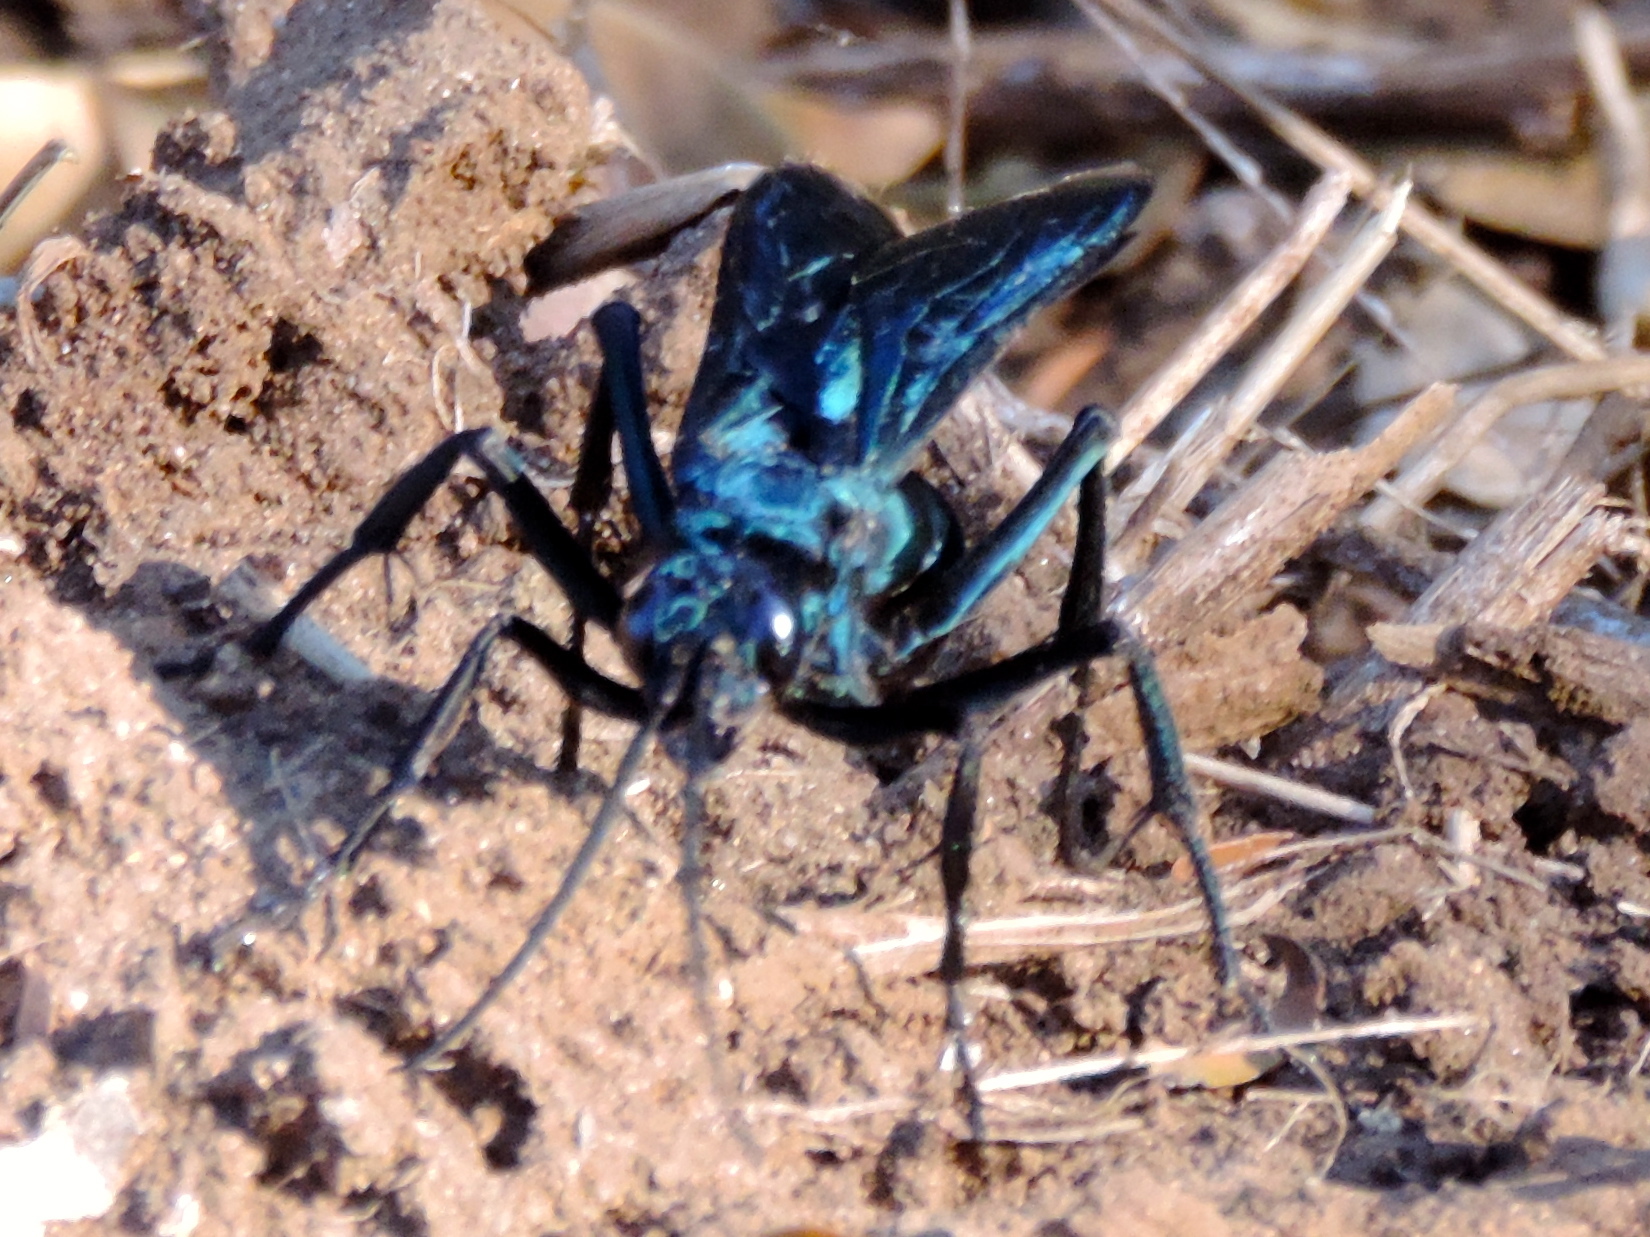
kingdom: Animalia
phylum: Arthropoda
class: Insecta
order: Hymenoptera
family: Pompilidae
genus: Pepsis
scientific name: Pepsis mexicana
